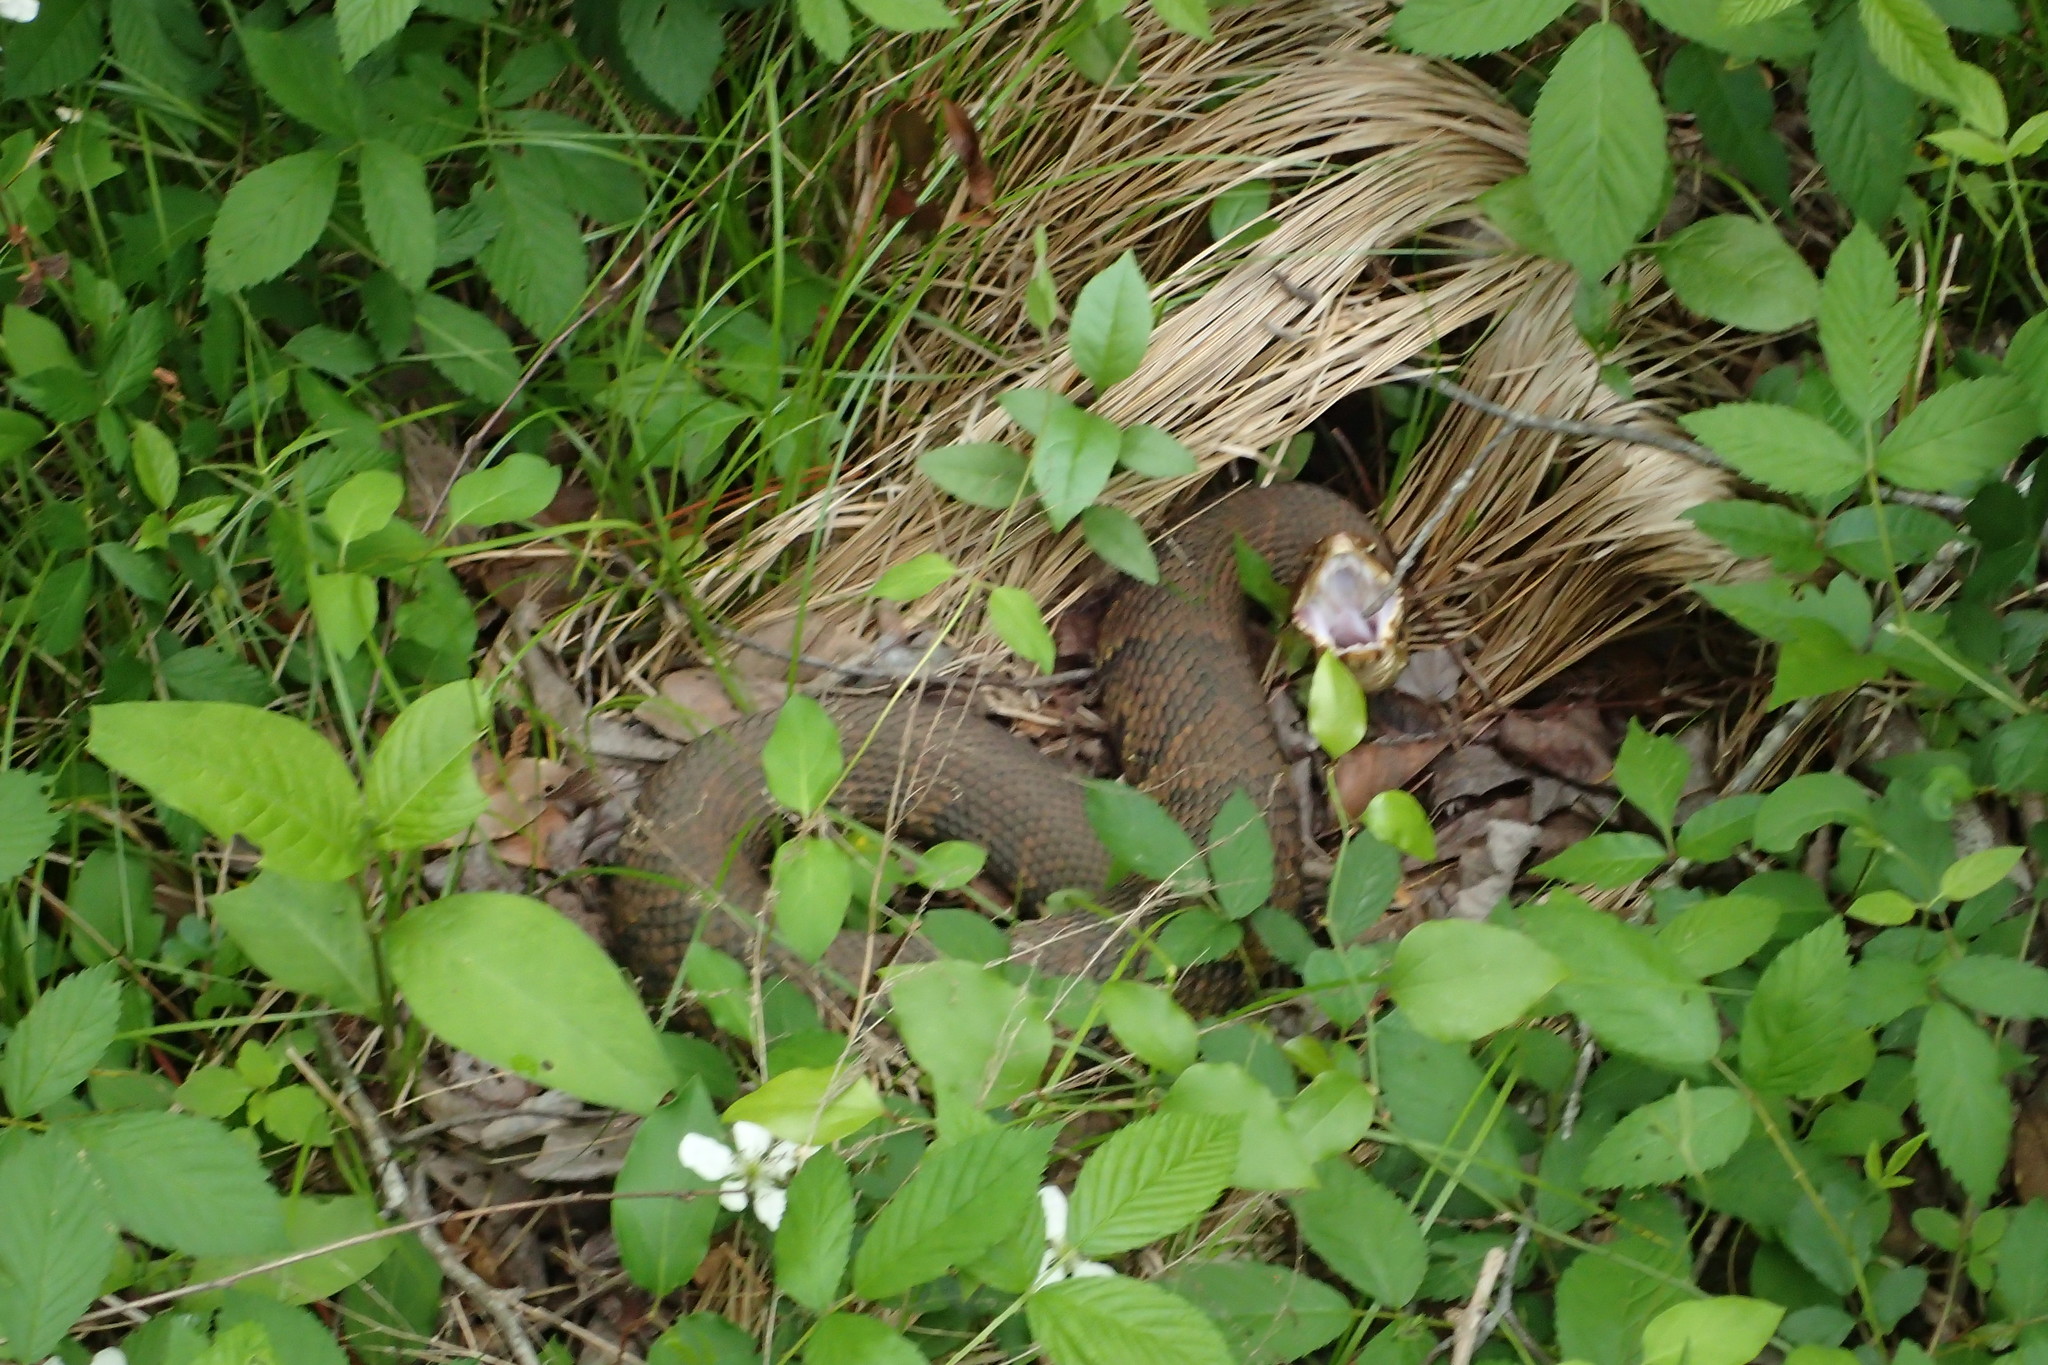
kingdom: Animalia
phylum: Chordata
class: Squamata
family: Viperidae
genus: Agkistrodon
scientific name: Agkistrodon piscivorus
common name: Cottonmouth
